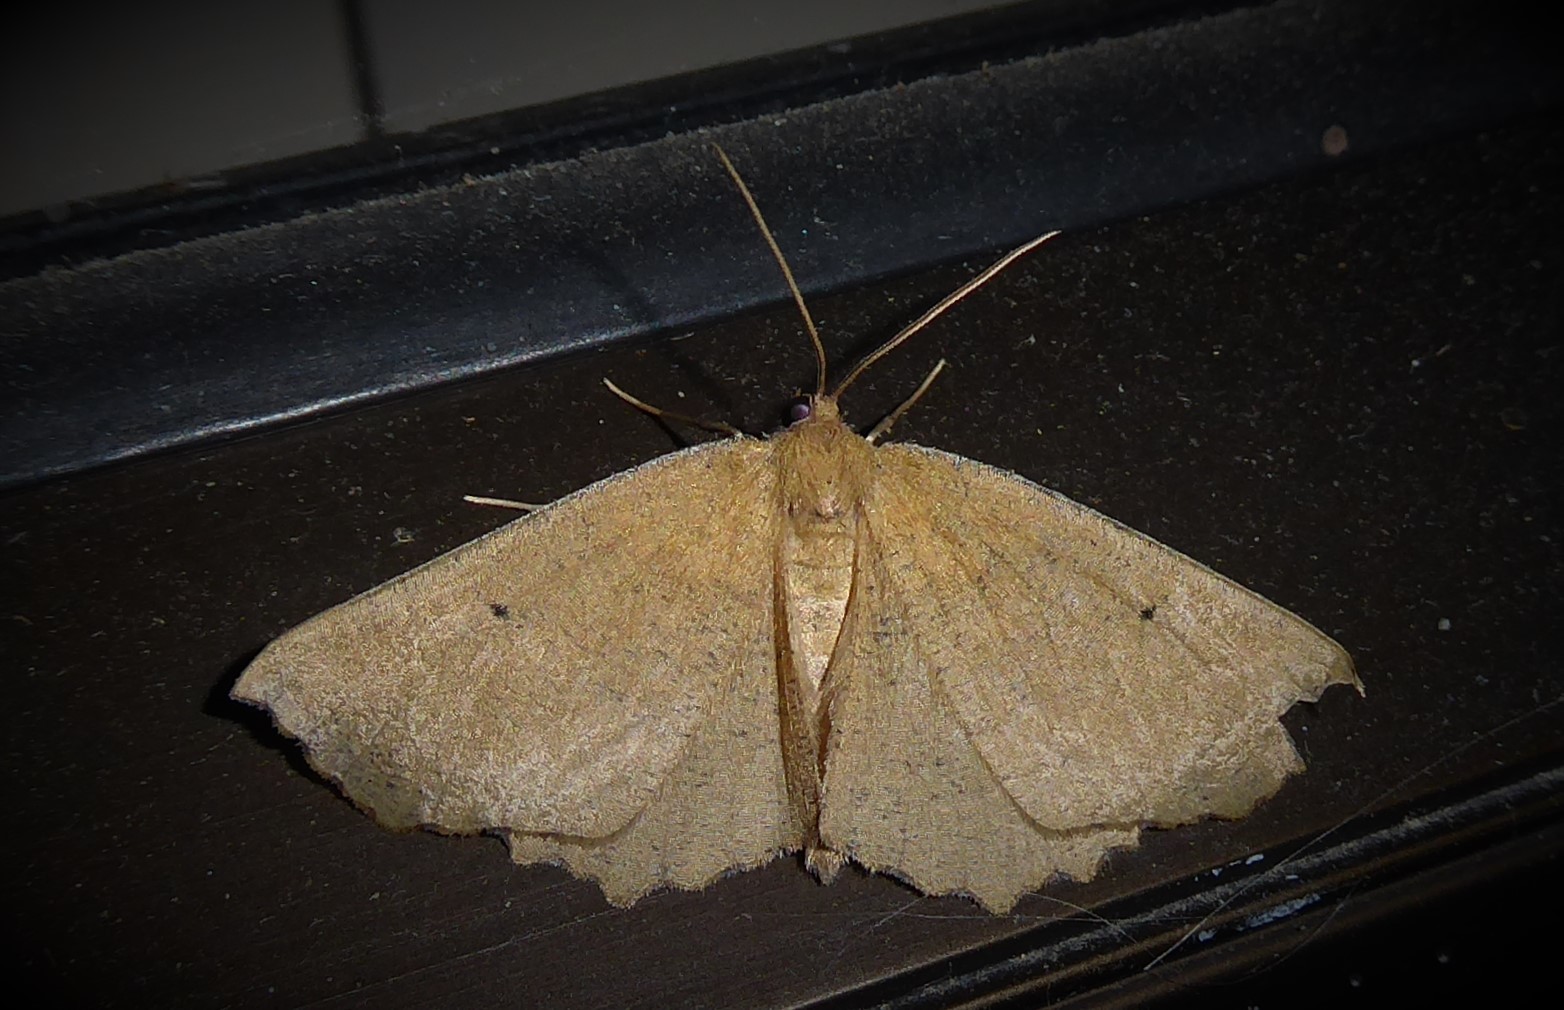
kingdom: Animalia
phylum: Arthropoda
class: Insecta
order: Lepidoptera
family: Geometridae
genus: Xyridacma
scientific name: Xyridacma ustaria
